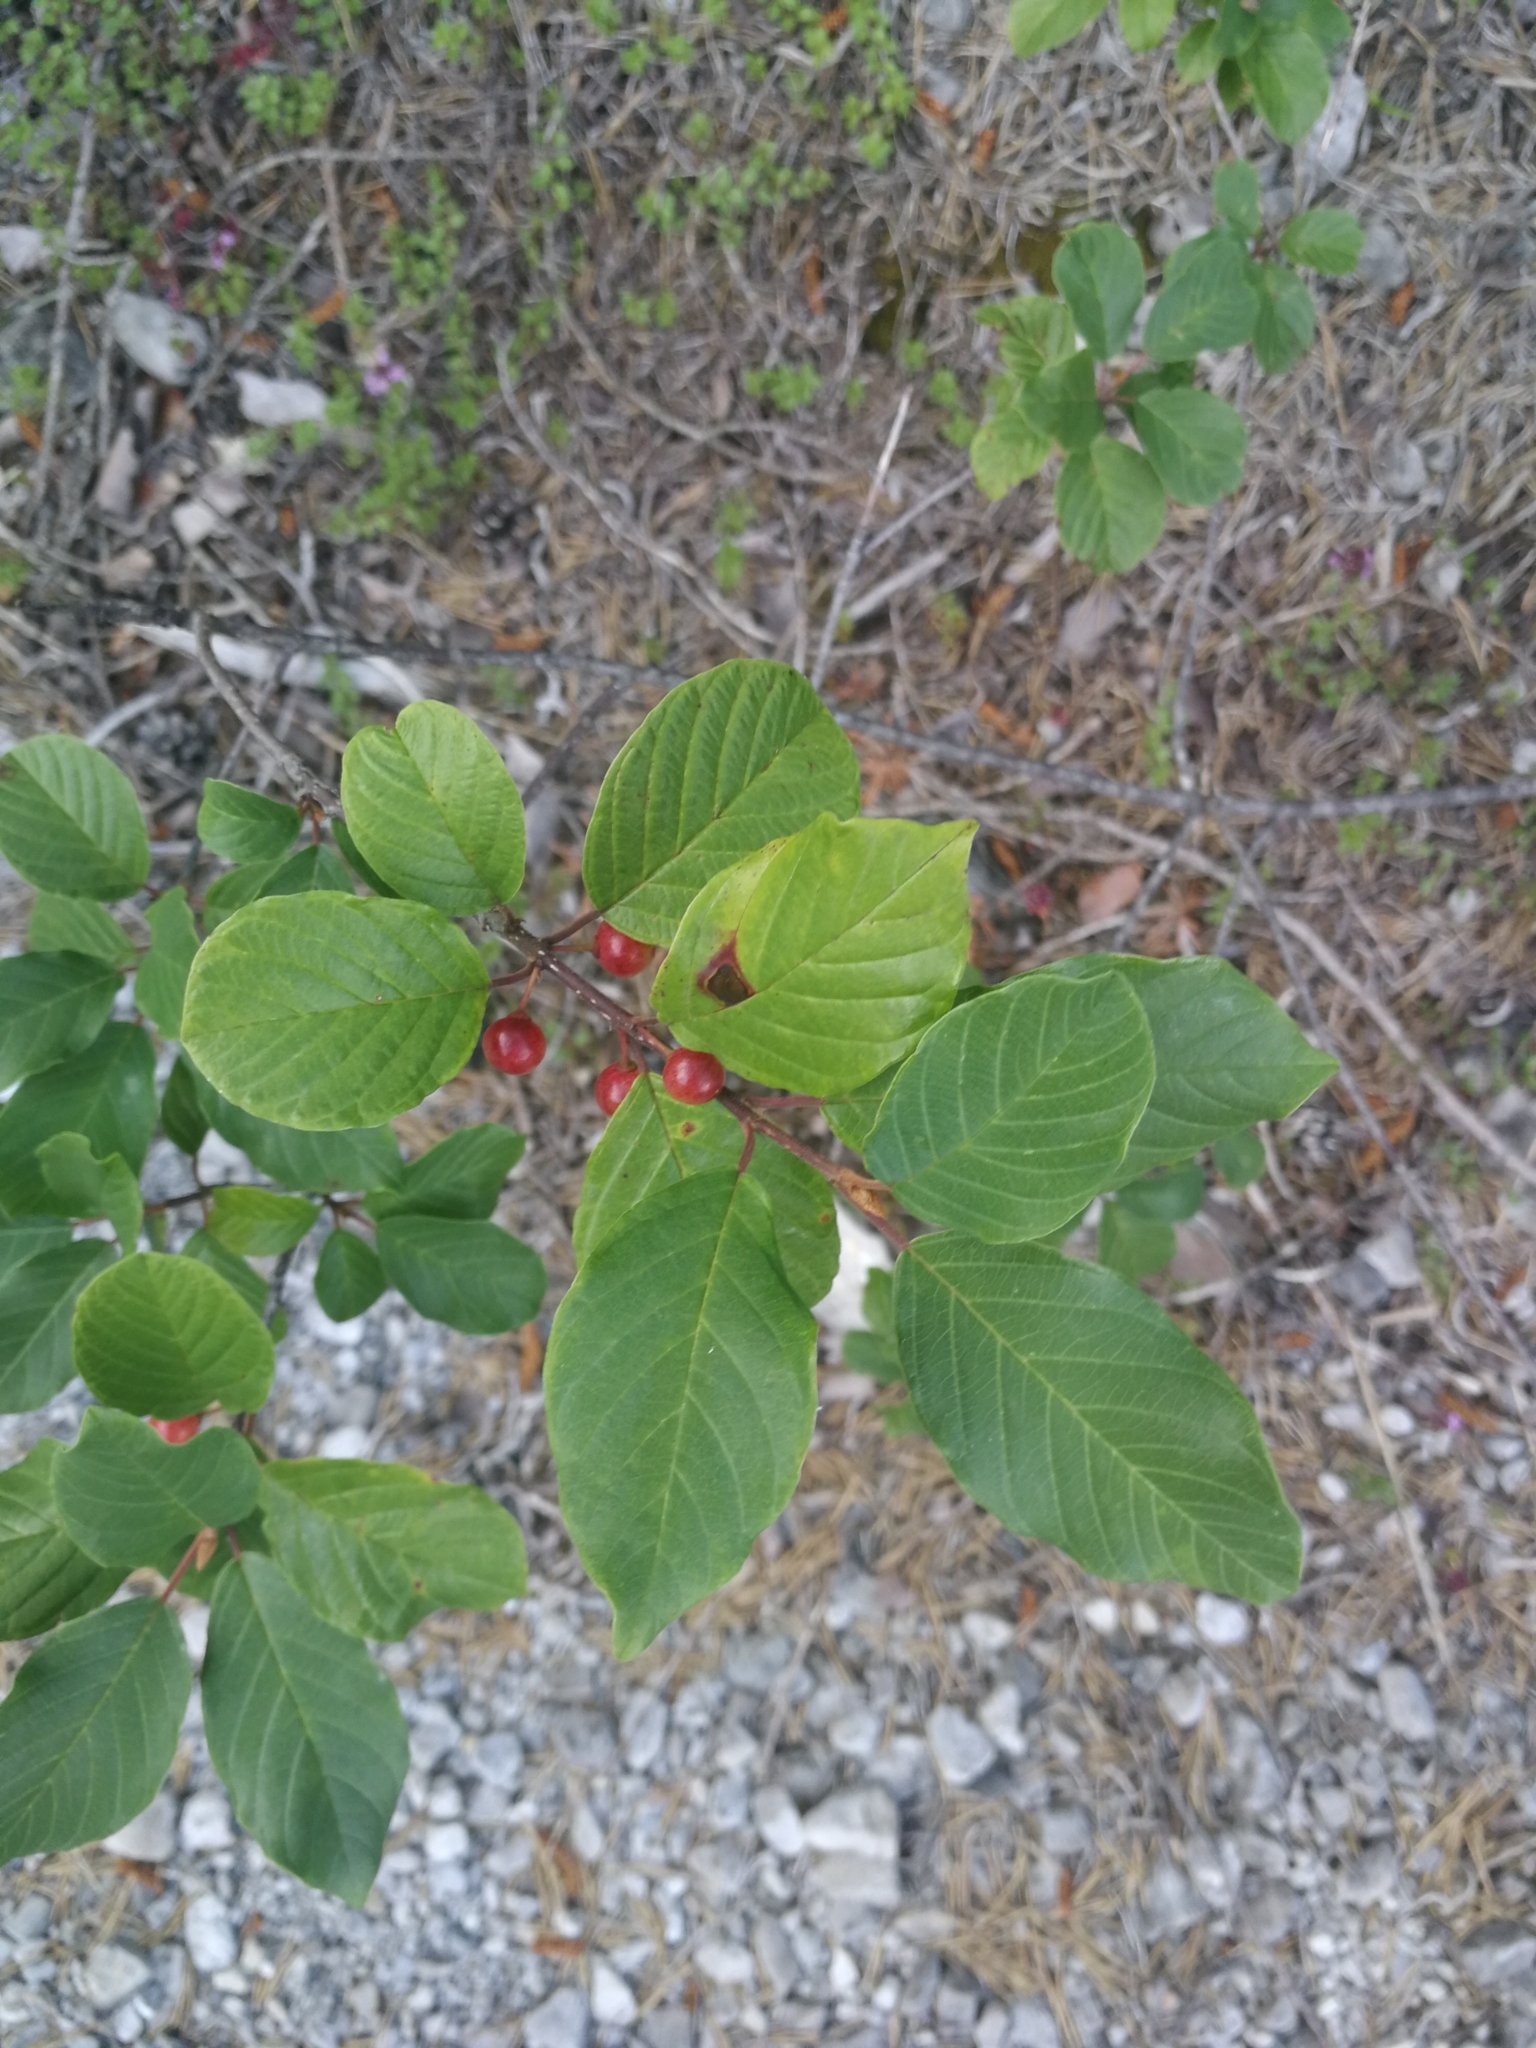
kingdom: Plantae
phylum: Tracheophyta
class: Magnoliopsida
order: Rosales
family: Rhamnaceae
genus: Frangula
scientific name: Frangula alnus
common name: Alder buckthorn
